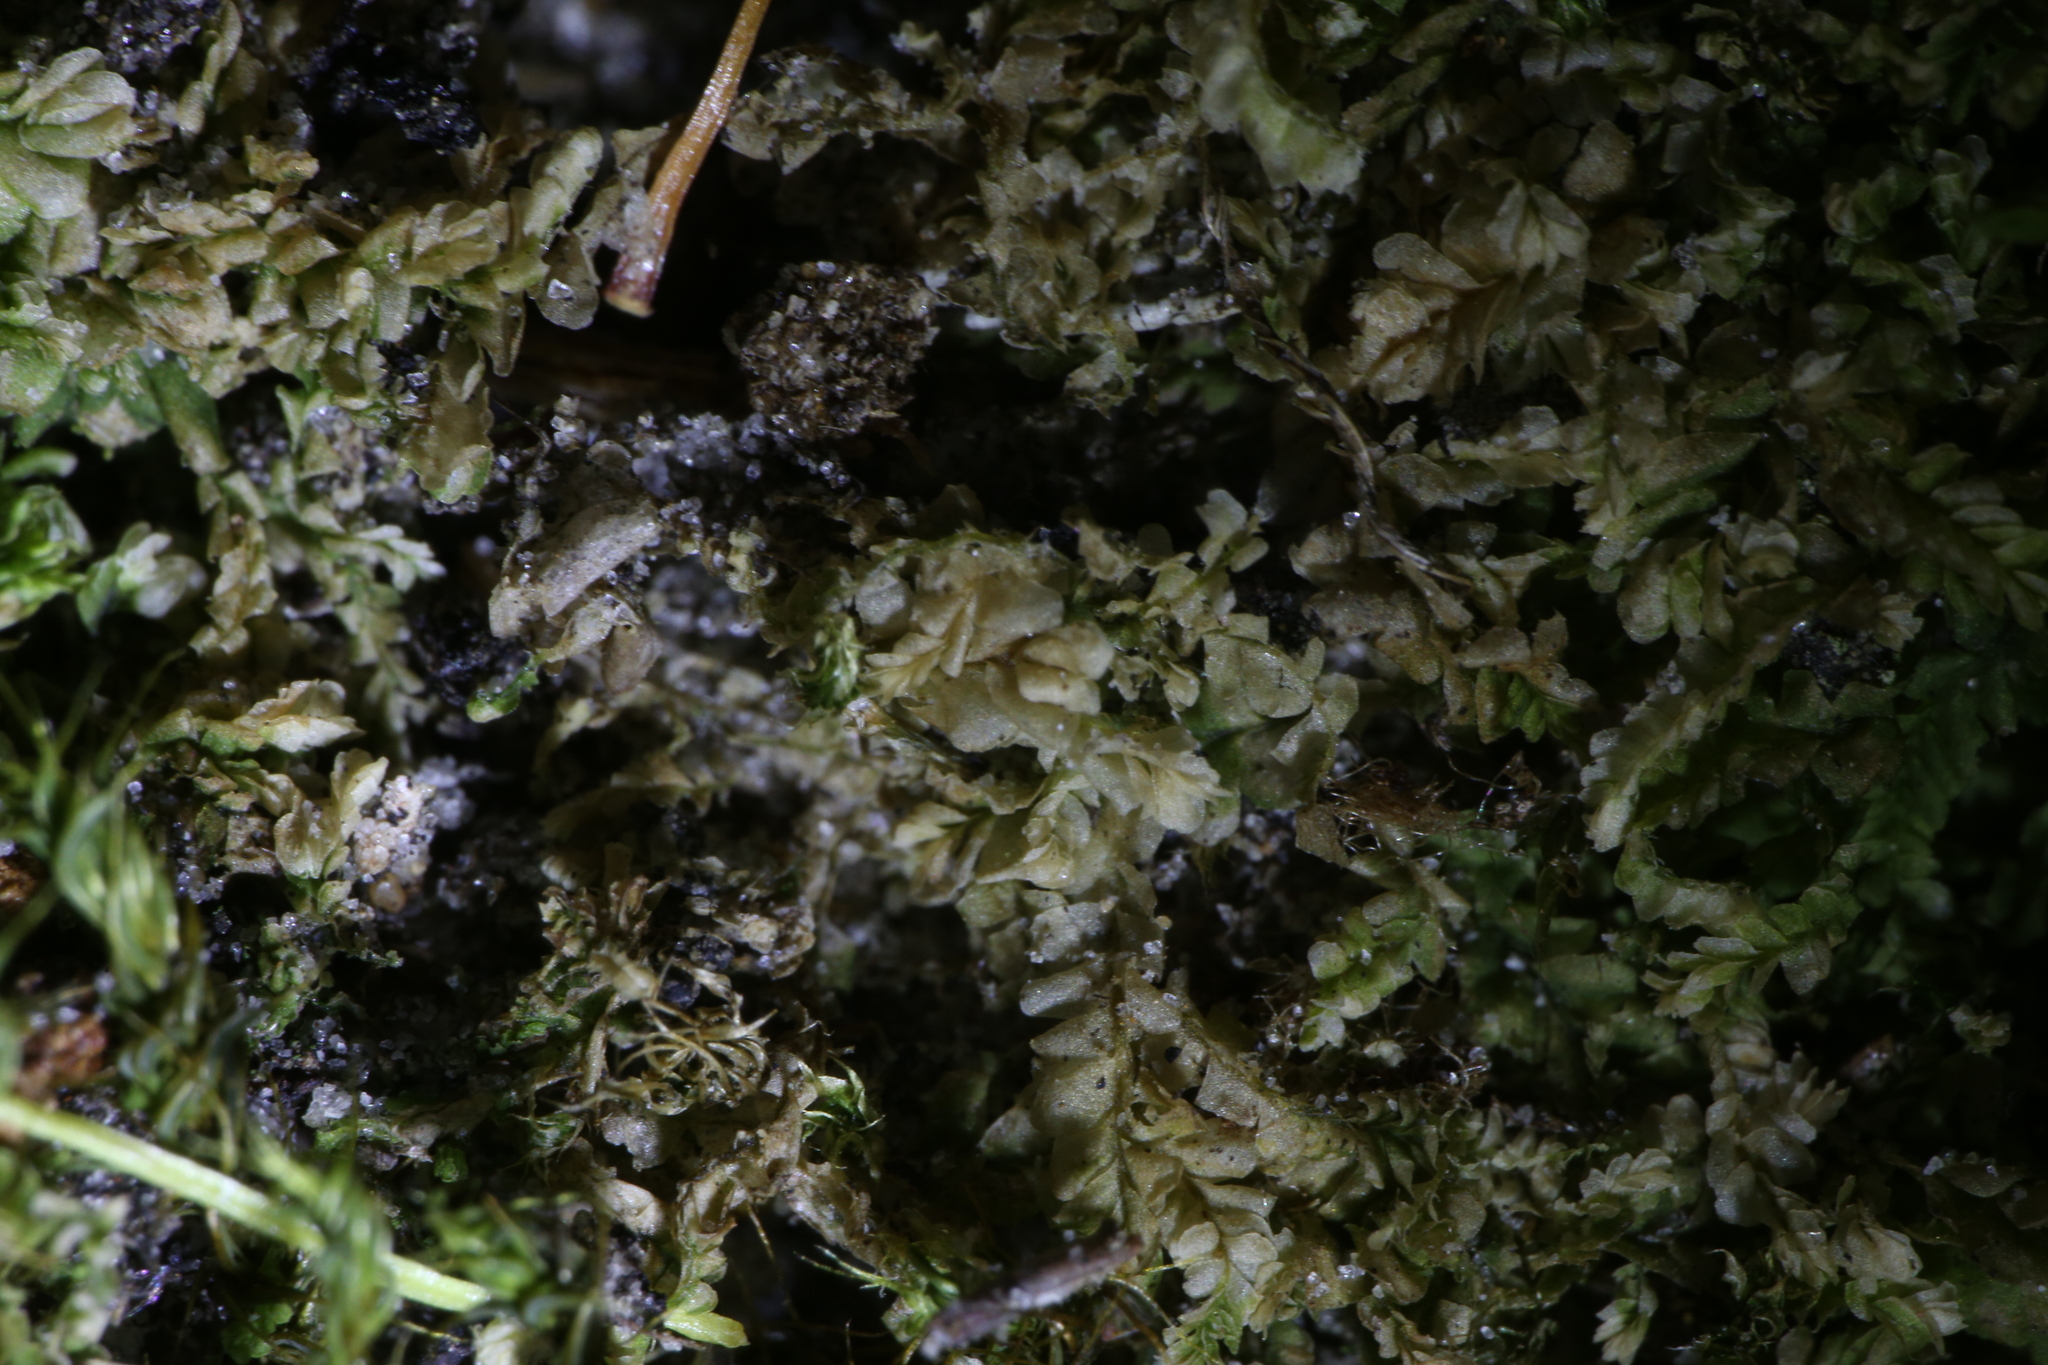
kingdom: Plantae
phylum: Marchantiophyta
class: Jungermanniopsida
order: Jungermanniales
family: Lophocoleaceae
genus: Lophocolea
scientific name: Lophocolea semiteres
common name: Southern crestwort
